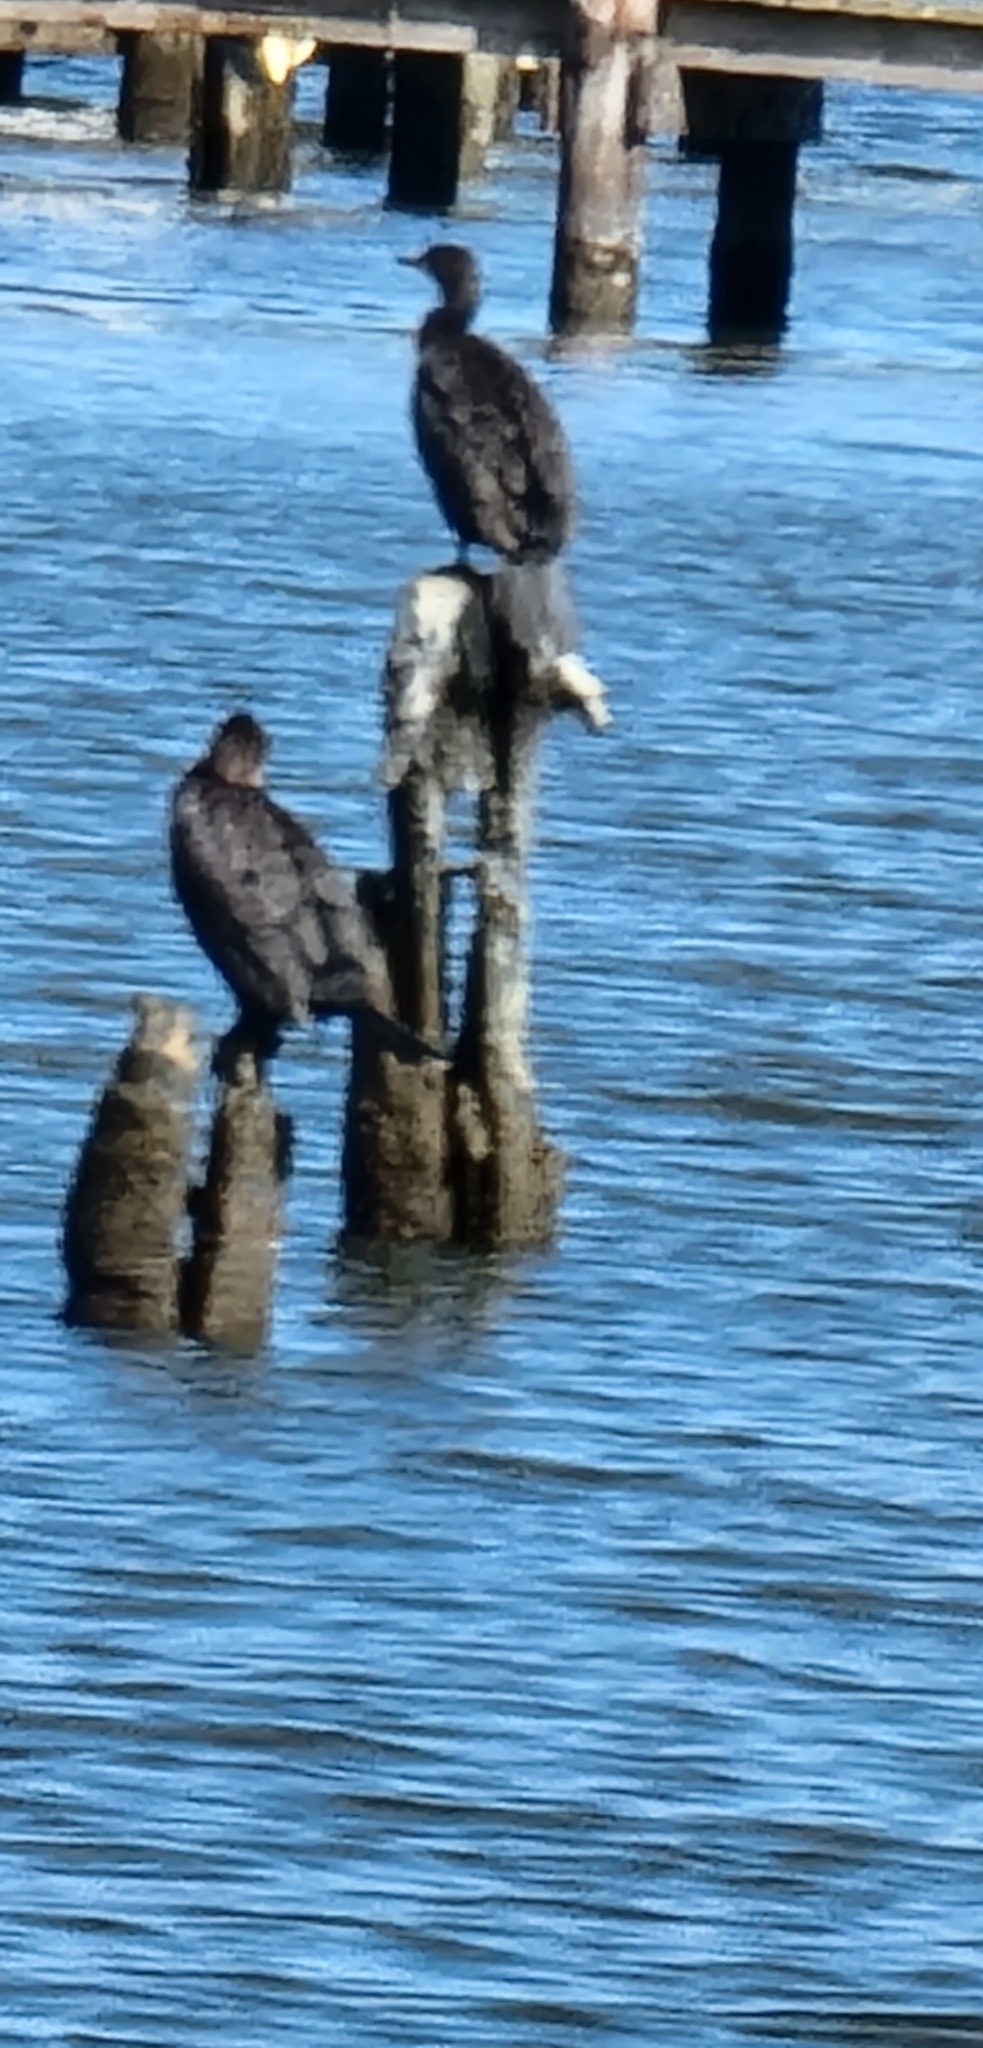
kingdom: Animalia
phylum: Chordata
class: Aves
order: Suliformes
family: Phalacrocoracidae
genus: Phalacrocorax
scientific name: Phalacrocorax auritus
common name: Double-crested cormorant
